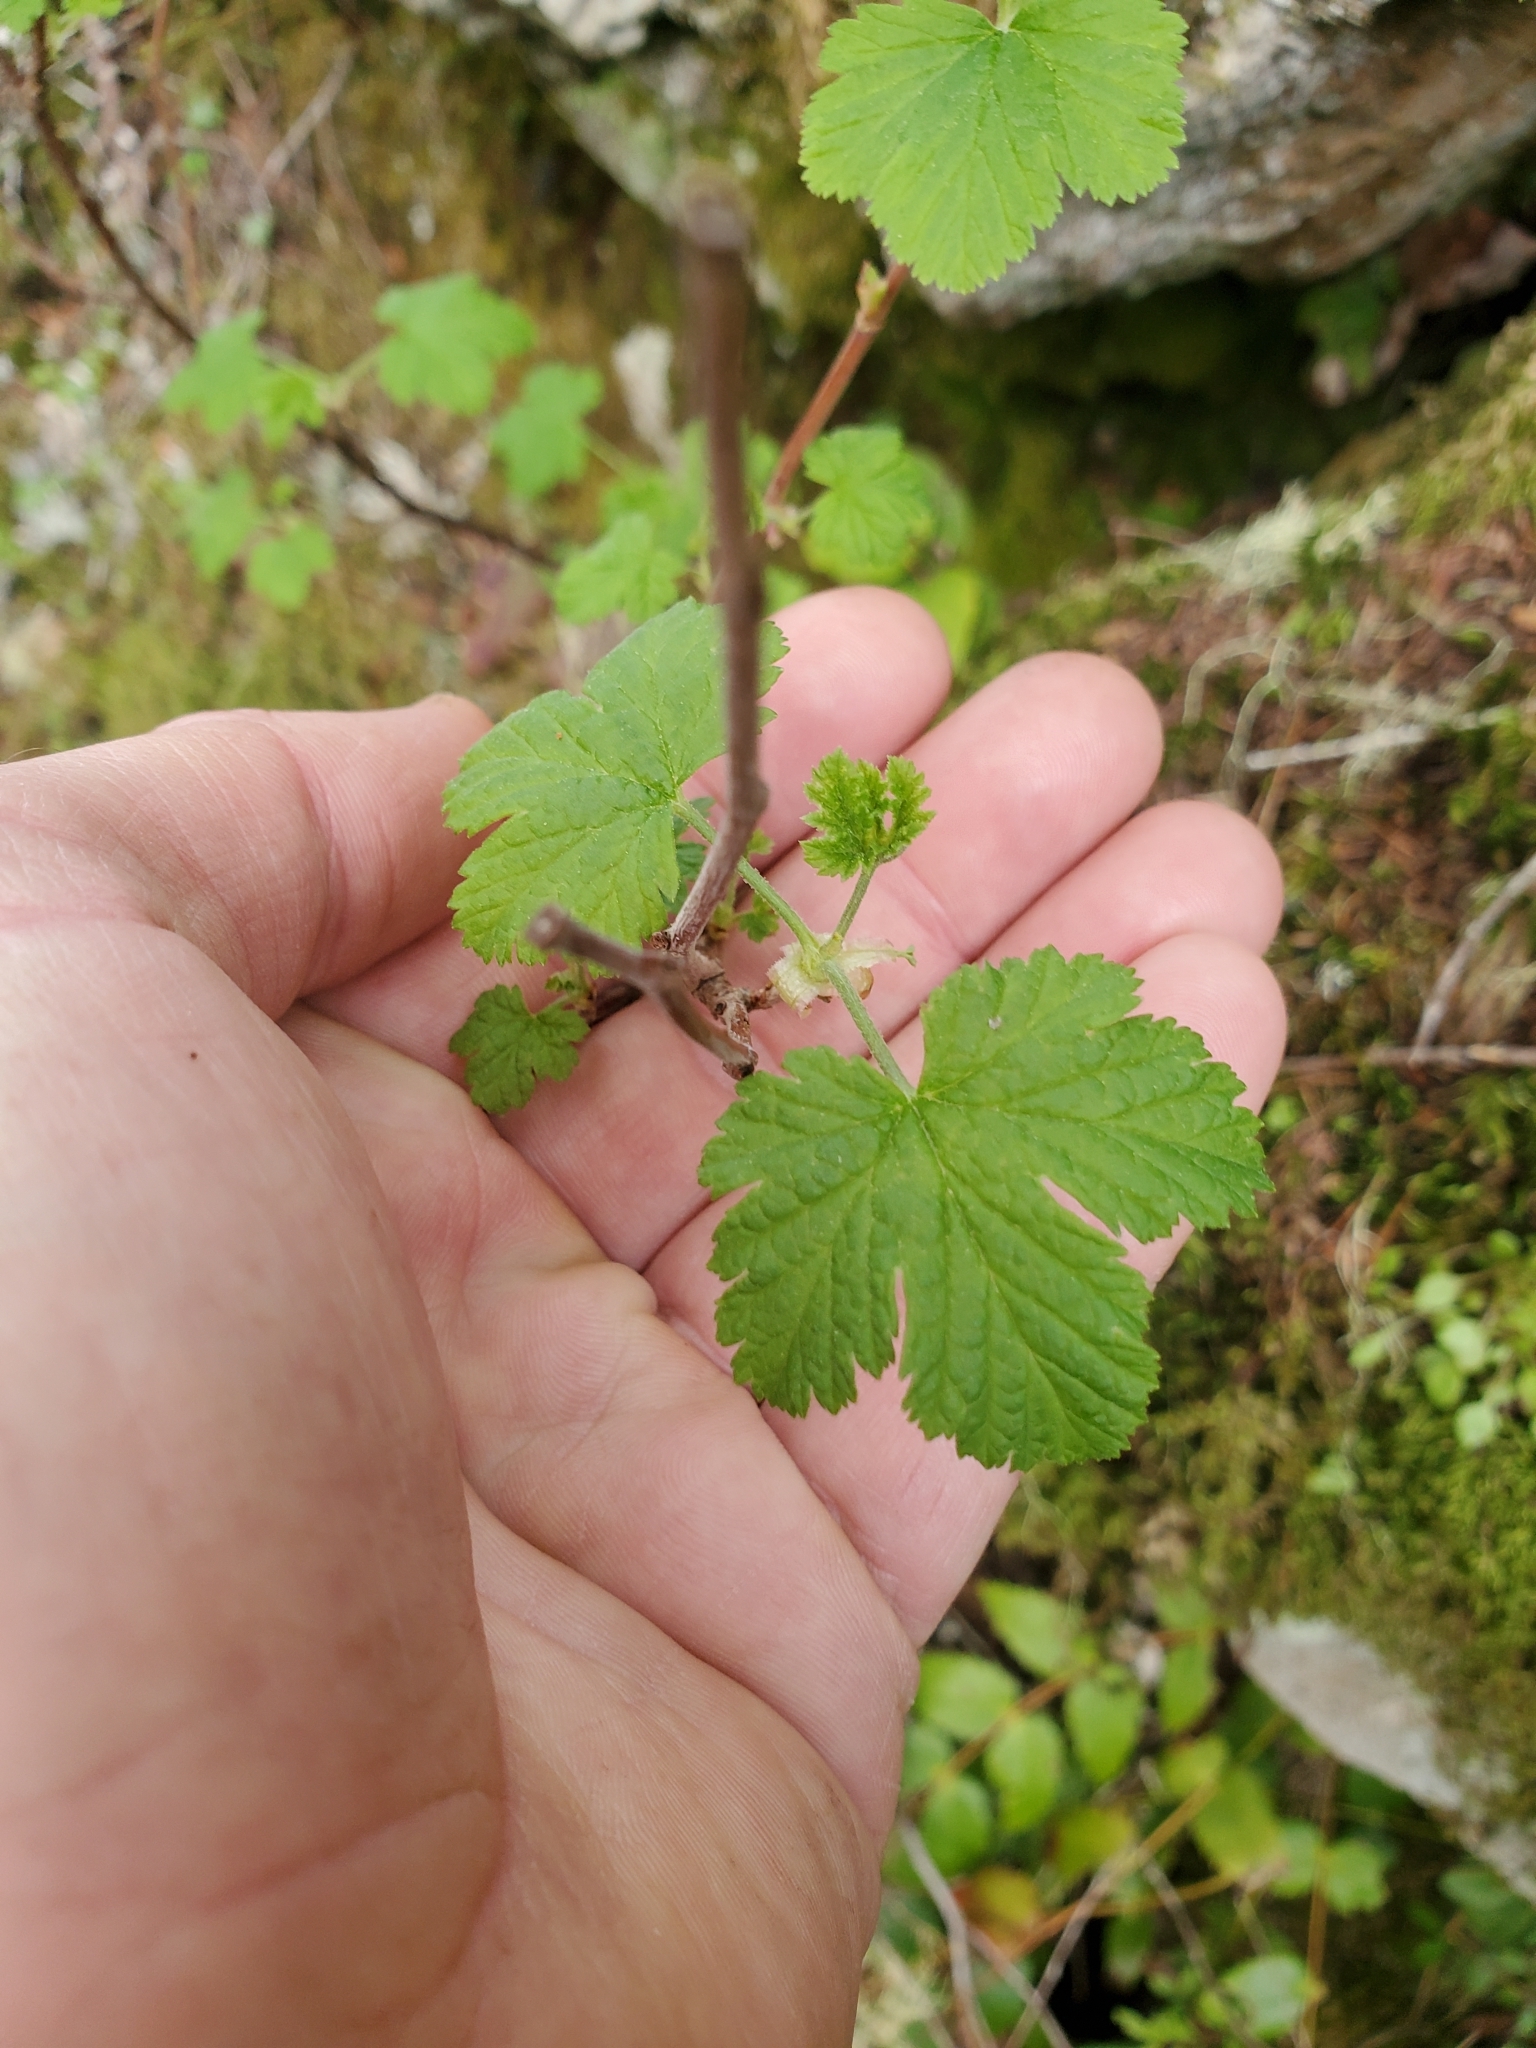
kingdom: Plantae
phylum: Tracheophyta
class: Magnoliopsida
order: Saxifragales
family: Grossulariaceae
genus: Ribes
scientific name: Ribes sanguineum
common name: Flowering currant
